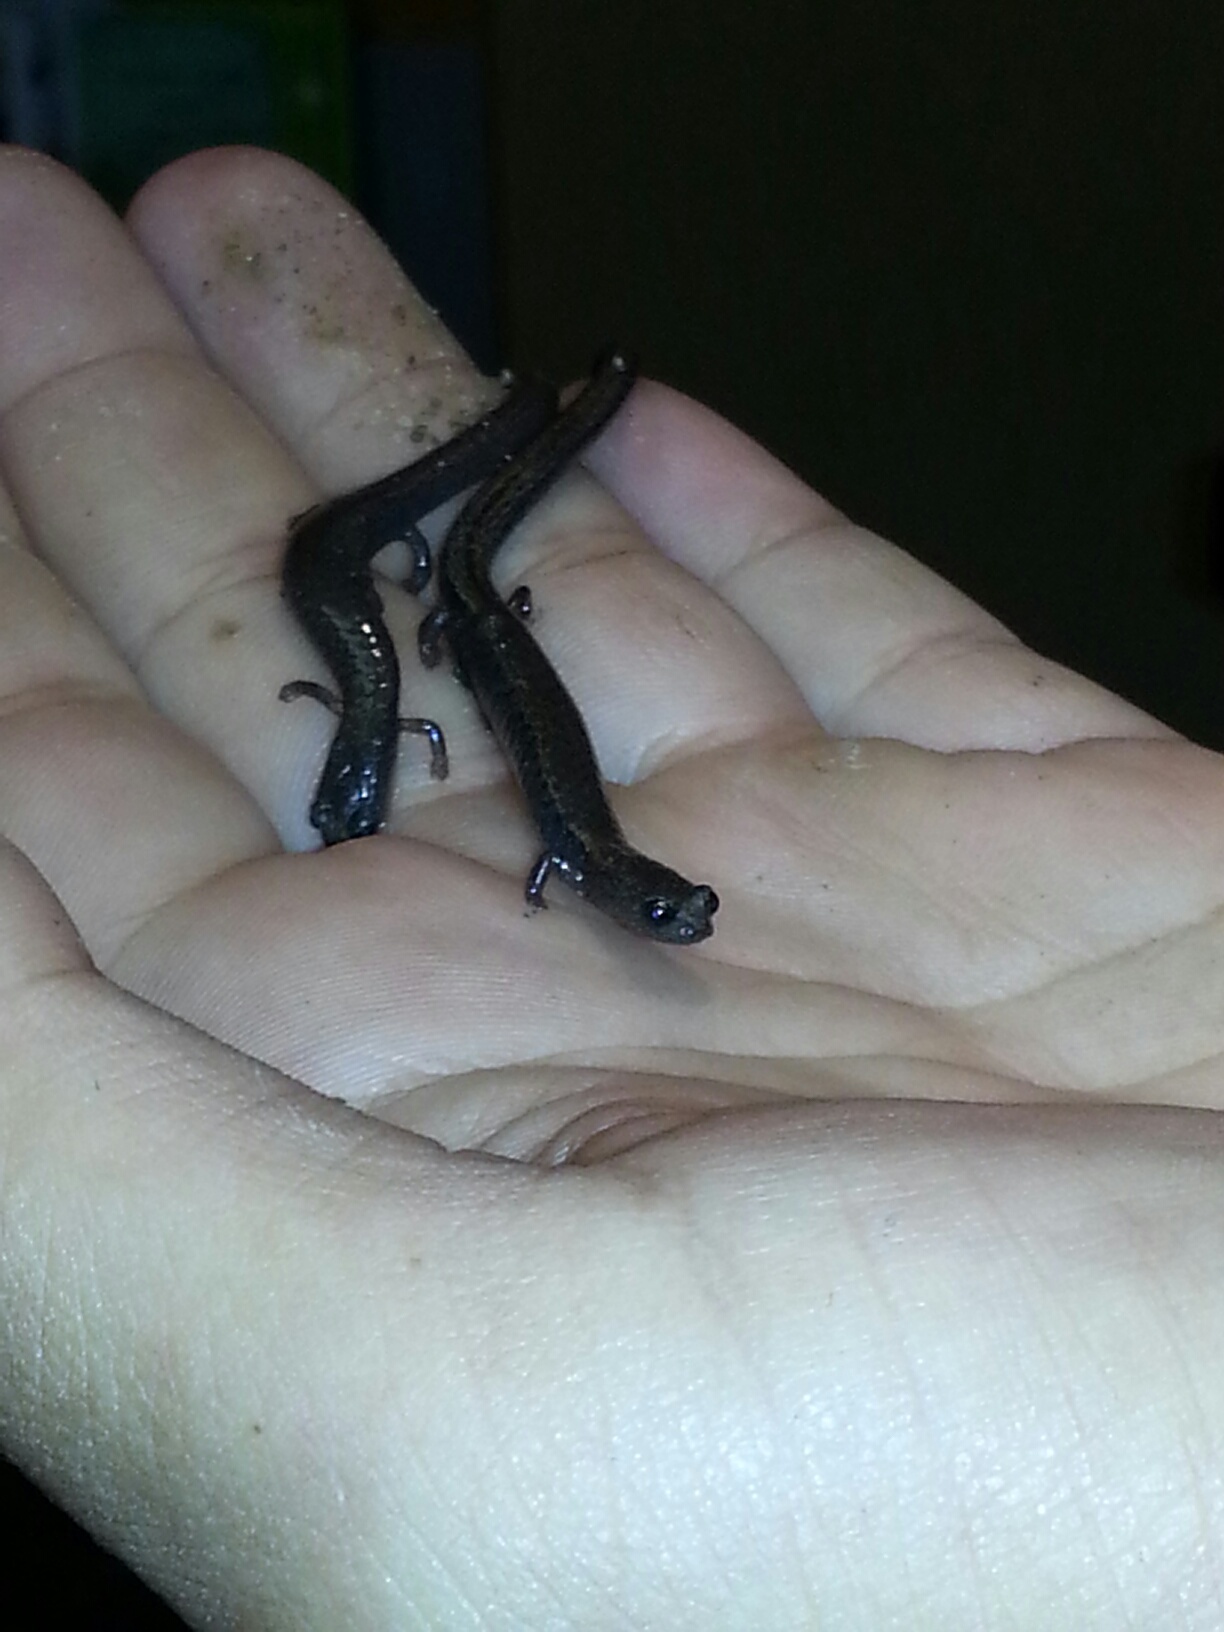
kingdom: Animalia
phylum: Chordata
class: Amphibia
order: Caudata
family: Plethodontidae
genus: Batrachoseps
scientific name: Batrachoseps attenuatus
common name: California slender salamander
